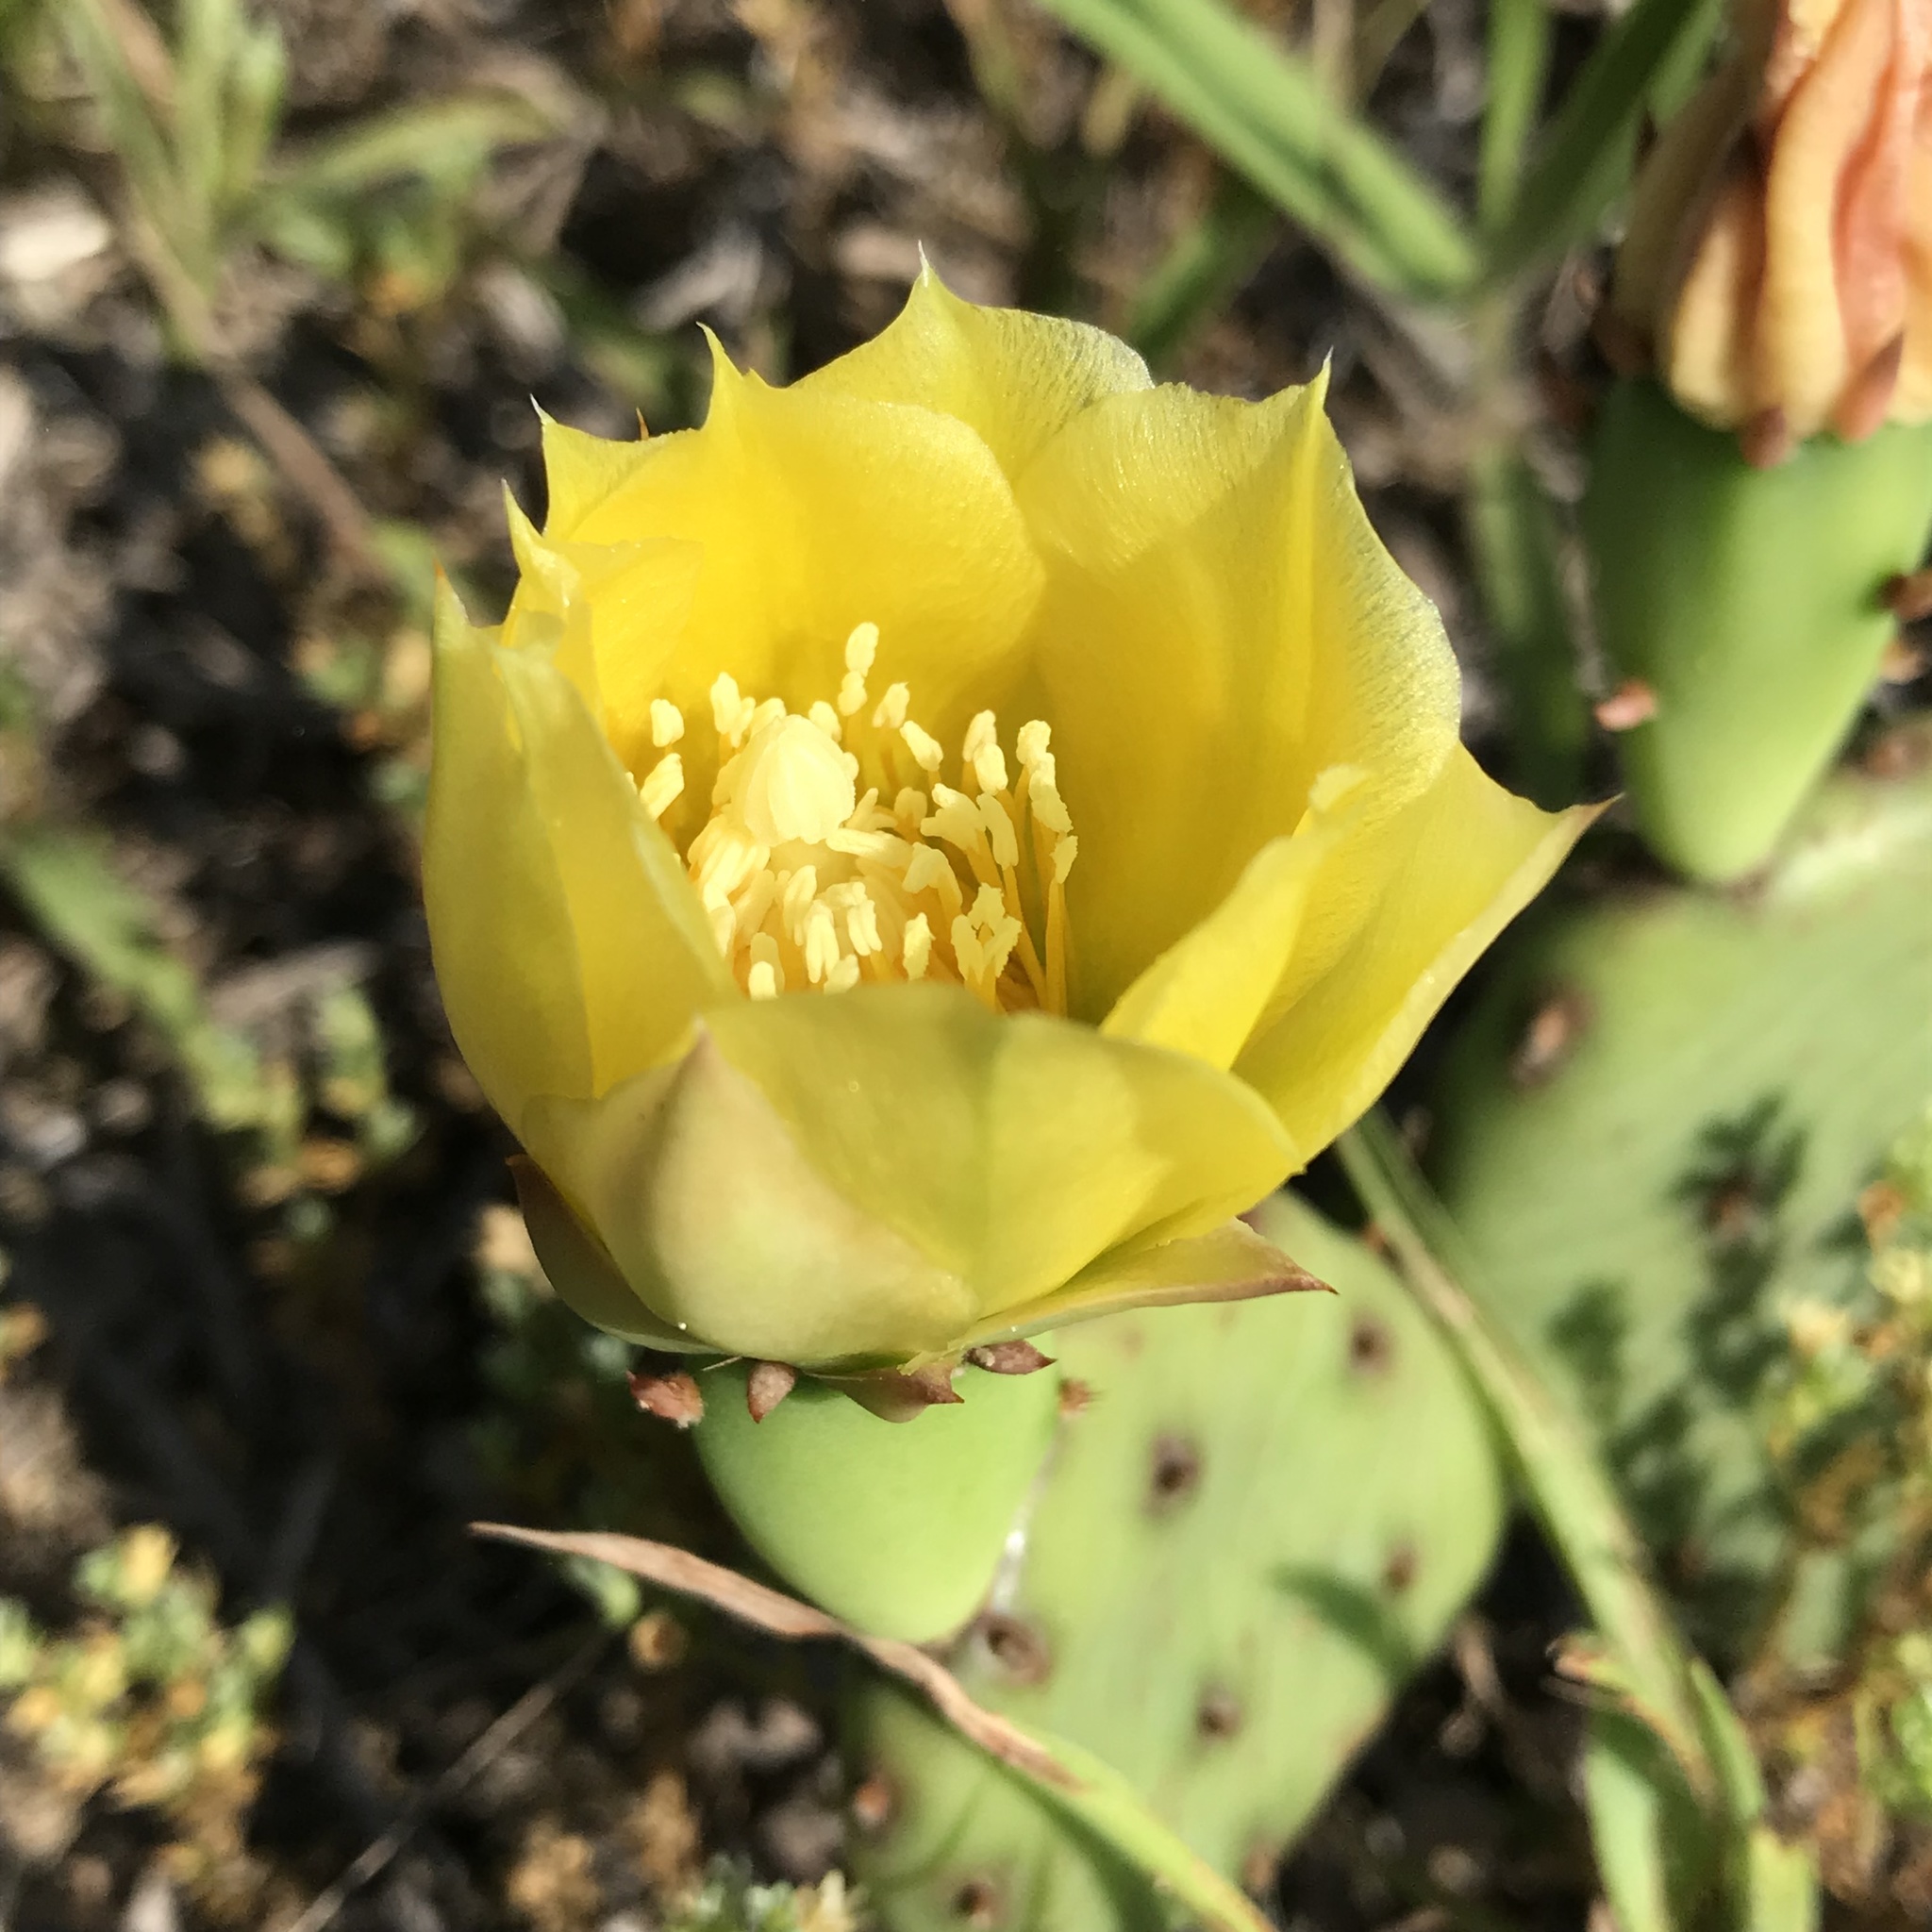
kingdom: Plantae
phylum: Tracheophyta
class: Magnoliopsida
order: Caryophyllales
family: Cactaceae
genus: Opuntia
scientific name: Opuntia humifusa
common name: Eastern prickly-pear
